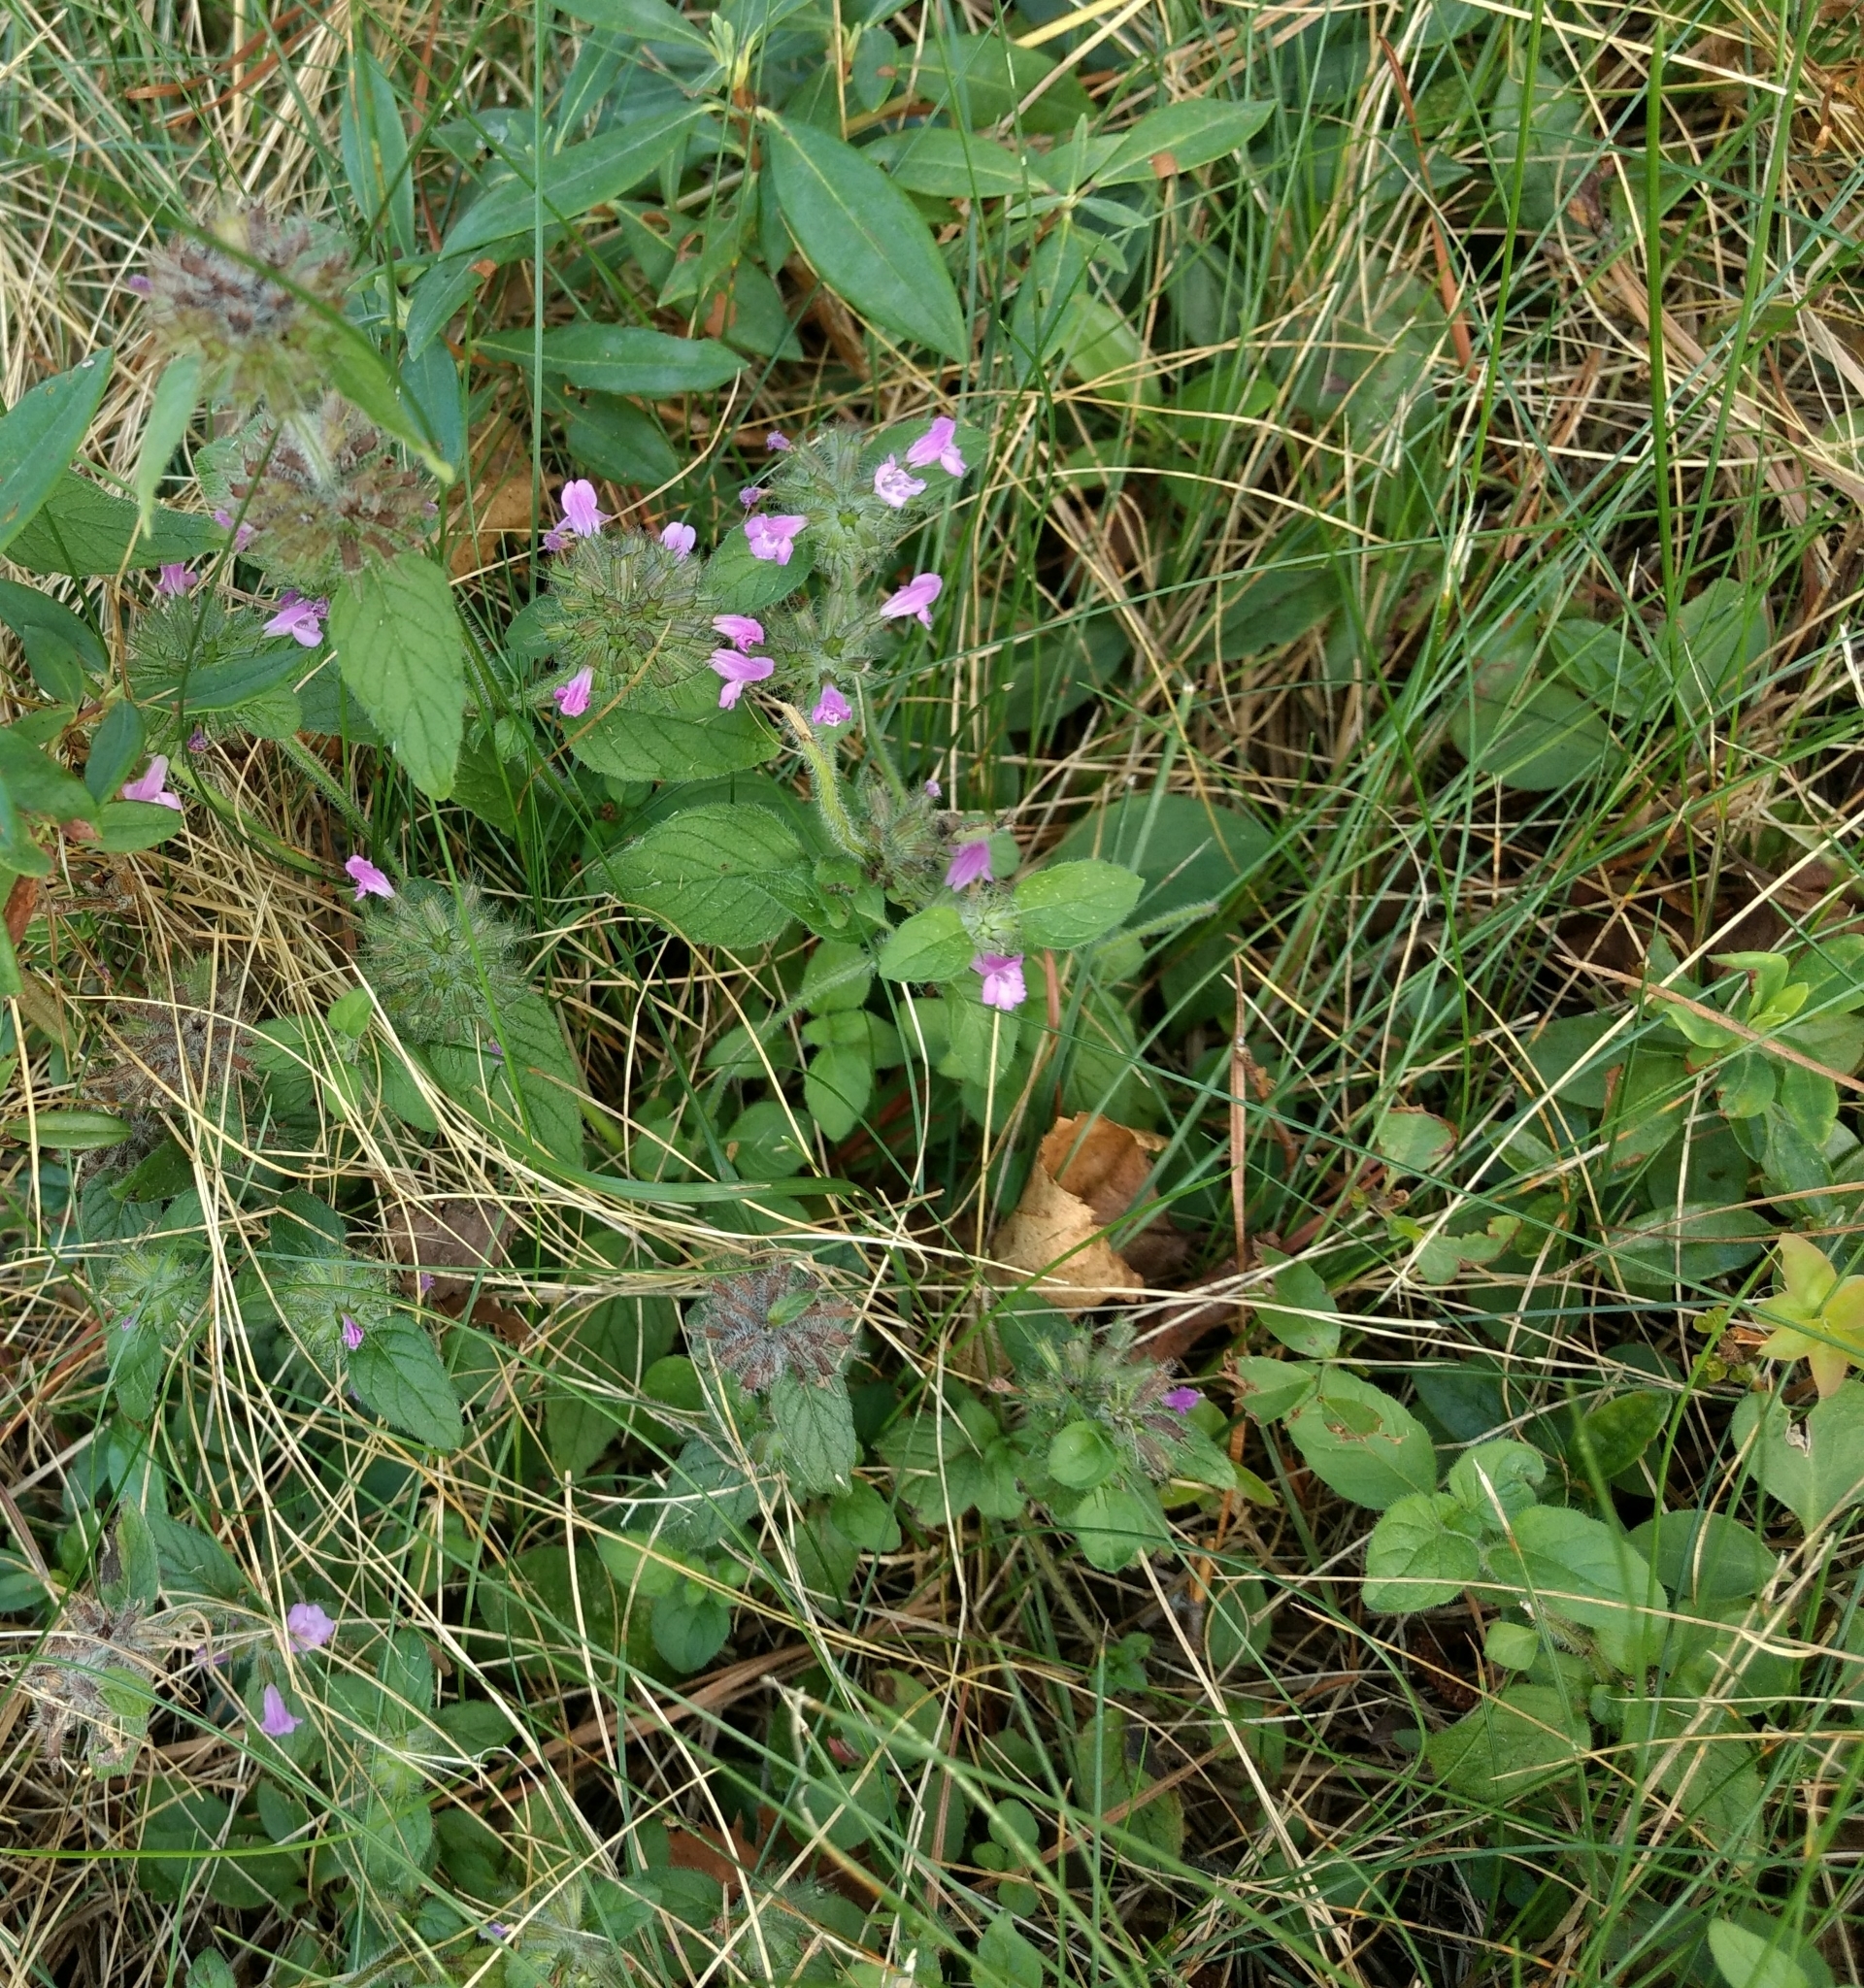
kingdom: Plantae
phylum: Tracheophyta
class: Magnoliopsida
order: Lamiales
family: Lamiaceae
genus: Clinopodium
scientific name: Clinopodium vulgare
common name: Wild basil
